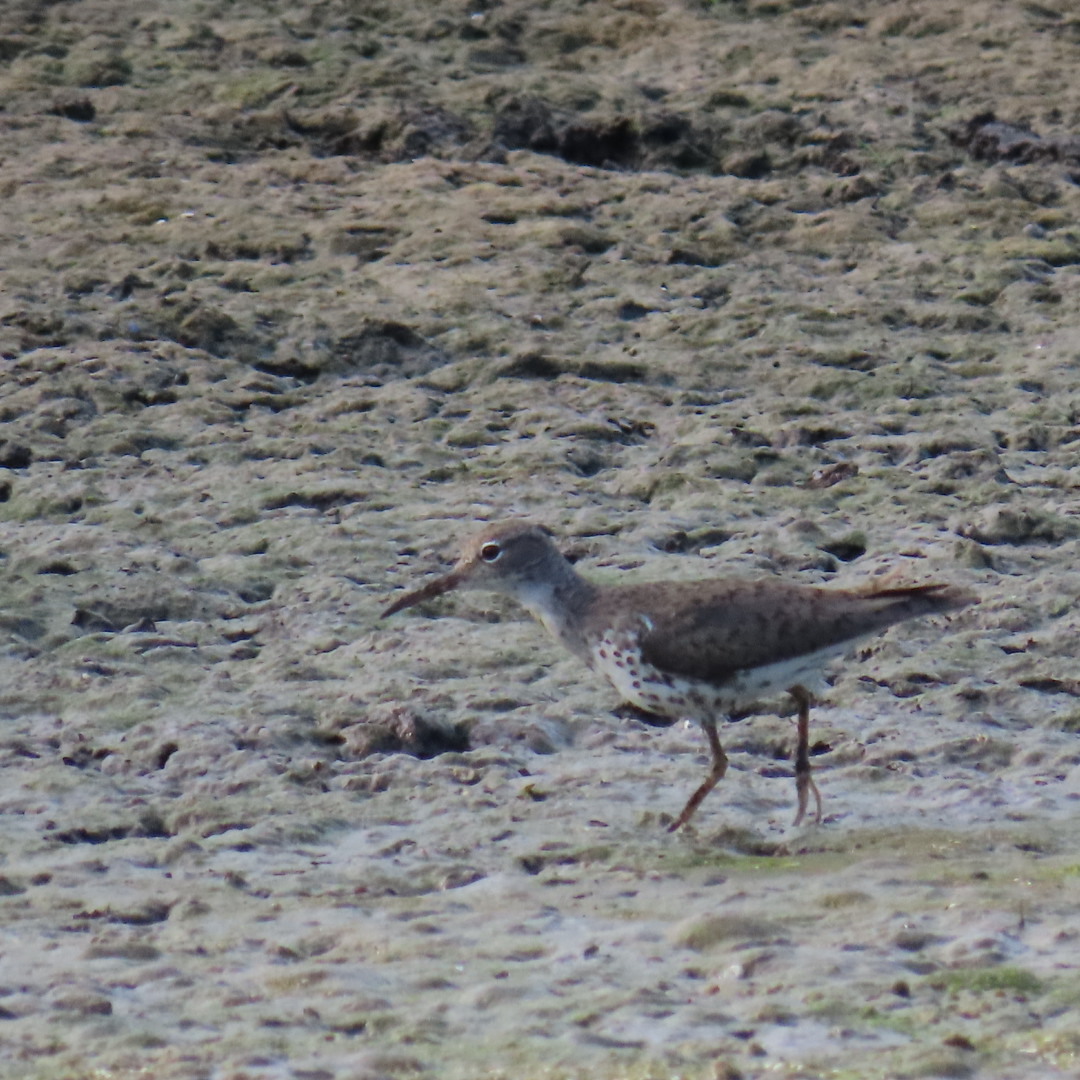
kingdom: Animalia
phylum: Chordata
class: Aves
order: Charadriiformes
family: Scolopacidae
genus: Actitis
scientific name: Actitis macularius
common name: Spotted sandpiper
